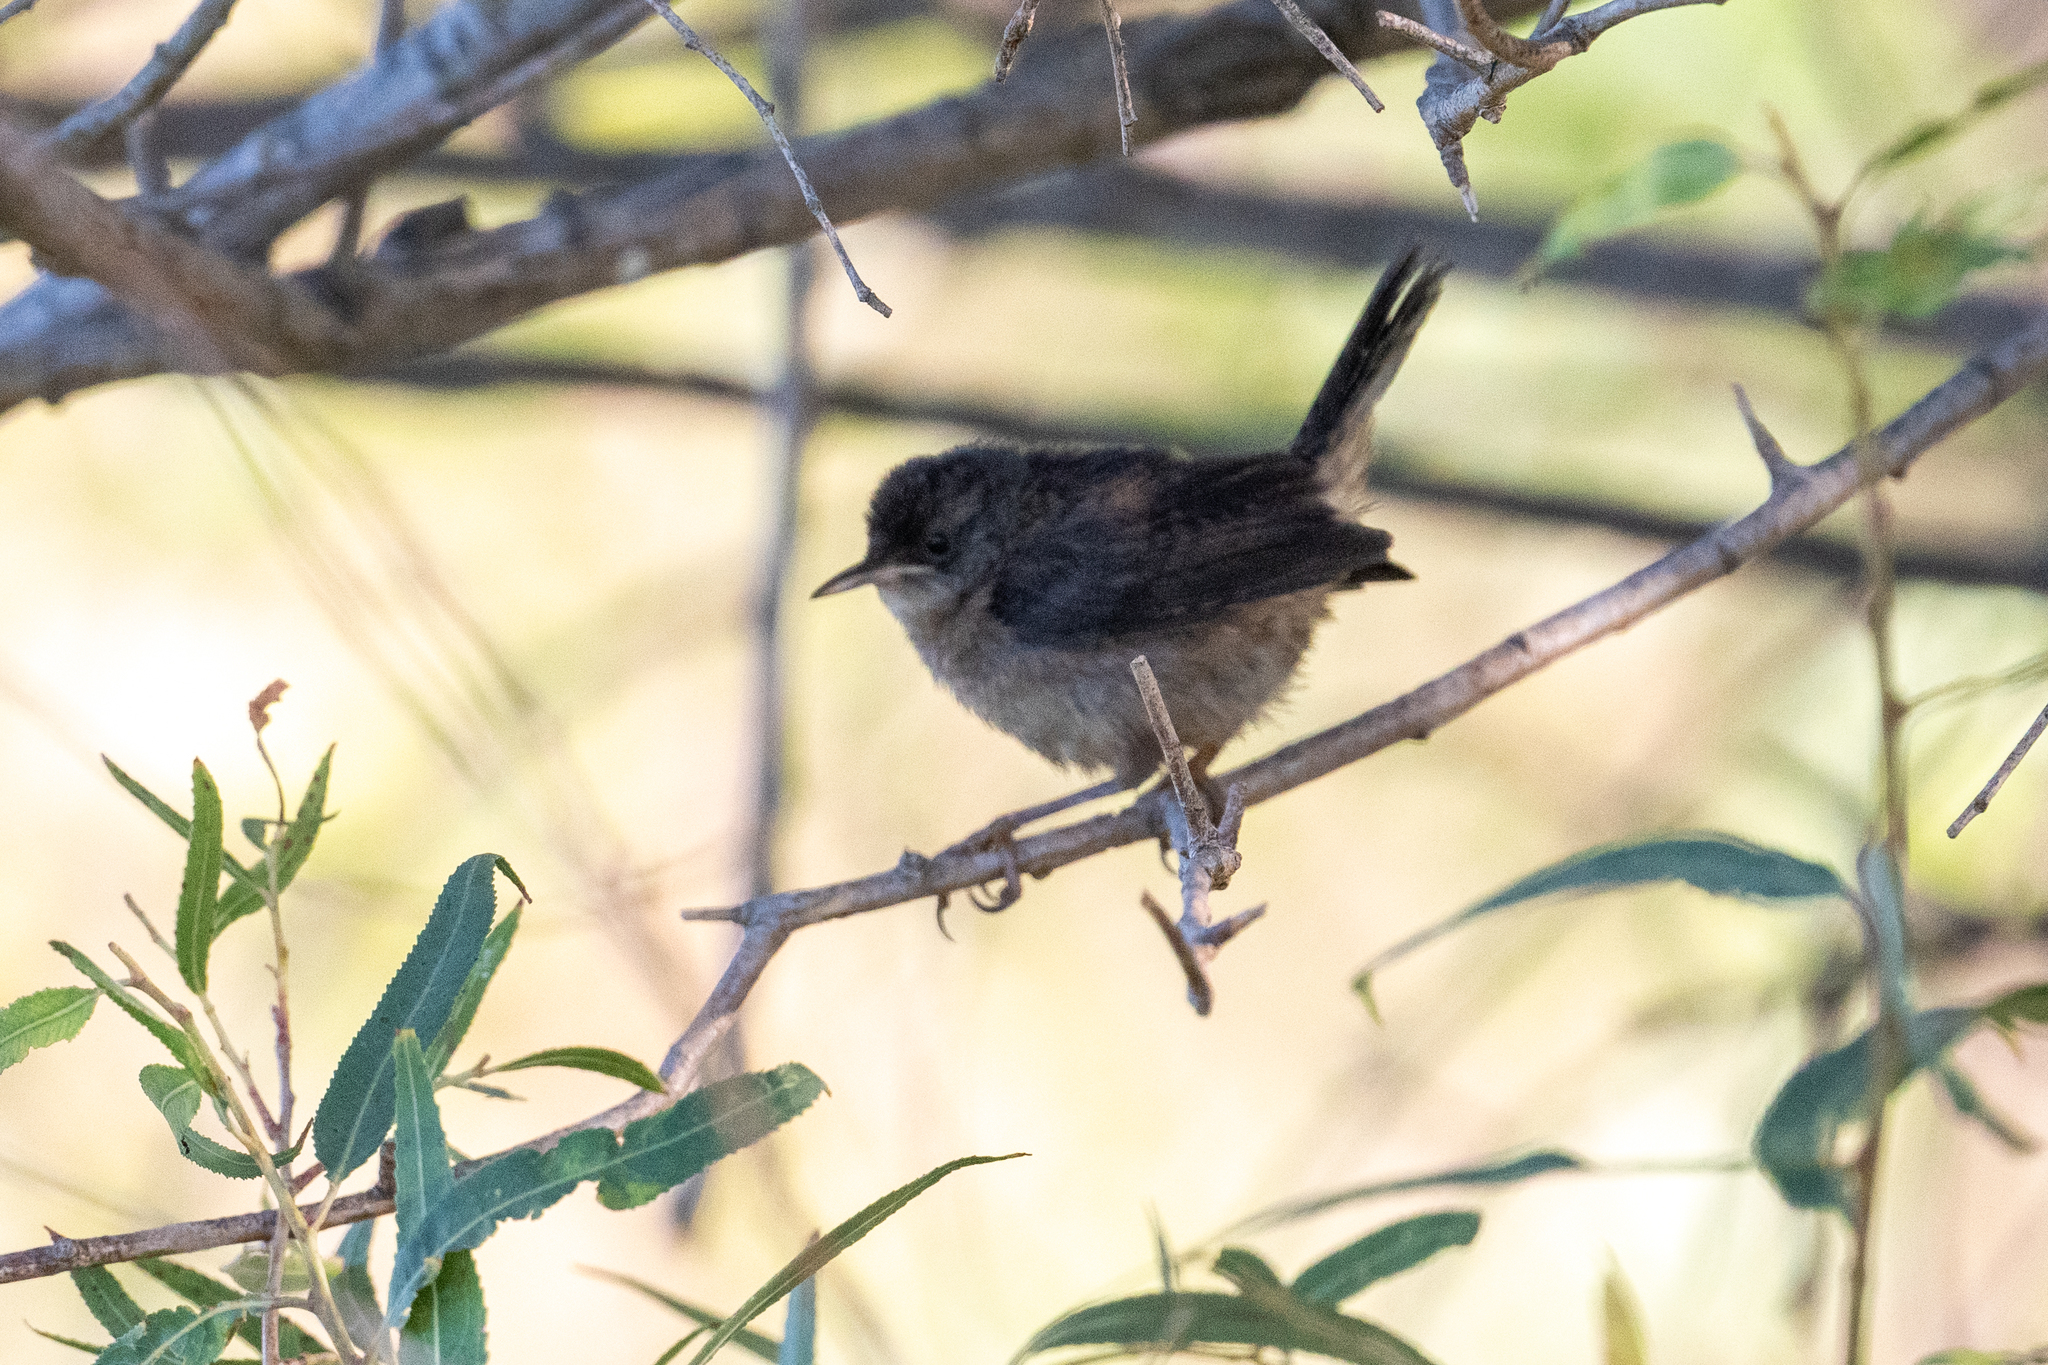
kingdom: Animalia
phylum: Chordata
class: Aves
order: Passeriformes
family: Troglodytidae
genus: Troglodytes
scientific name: Troglodytes aedon
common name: House wren
